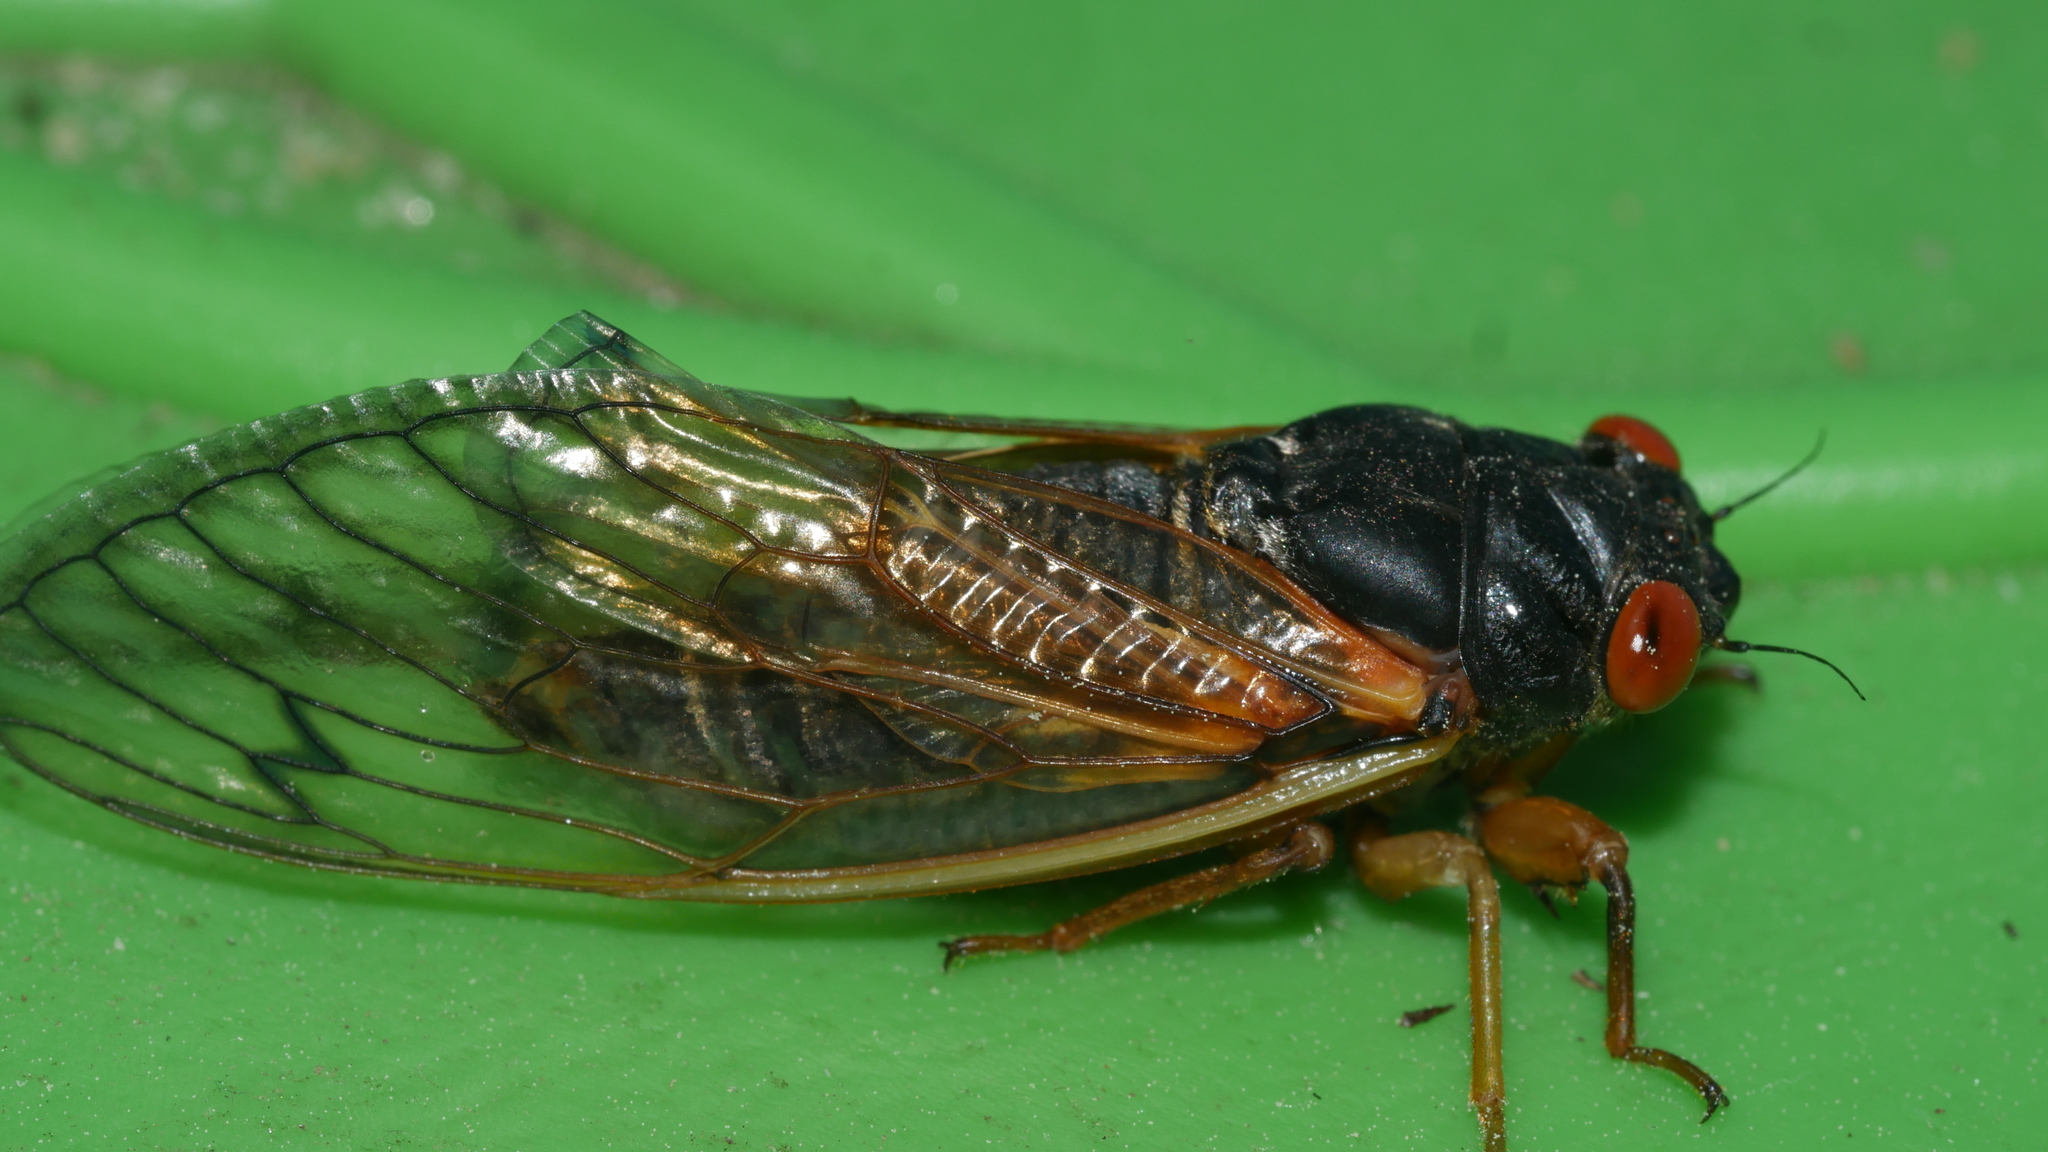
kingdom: Animalia
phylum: Arthropoda
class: Insecta
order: Hemiptera
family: Cicadidae
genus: Magicicada
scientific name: Magicicada septendecula
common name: Decula periodical cicada
